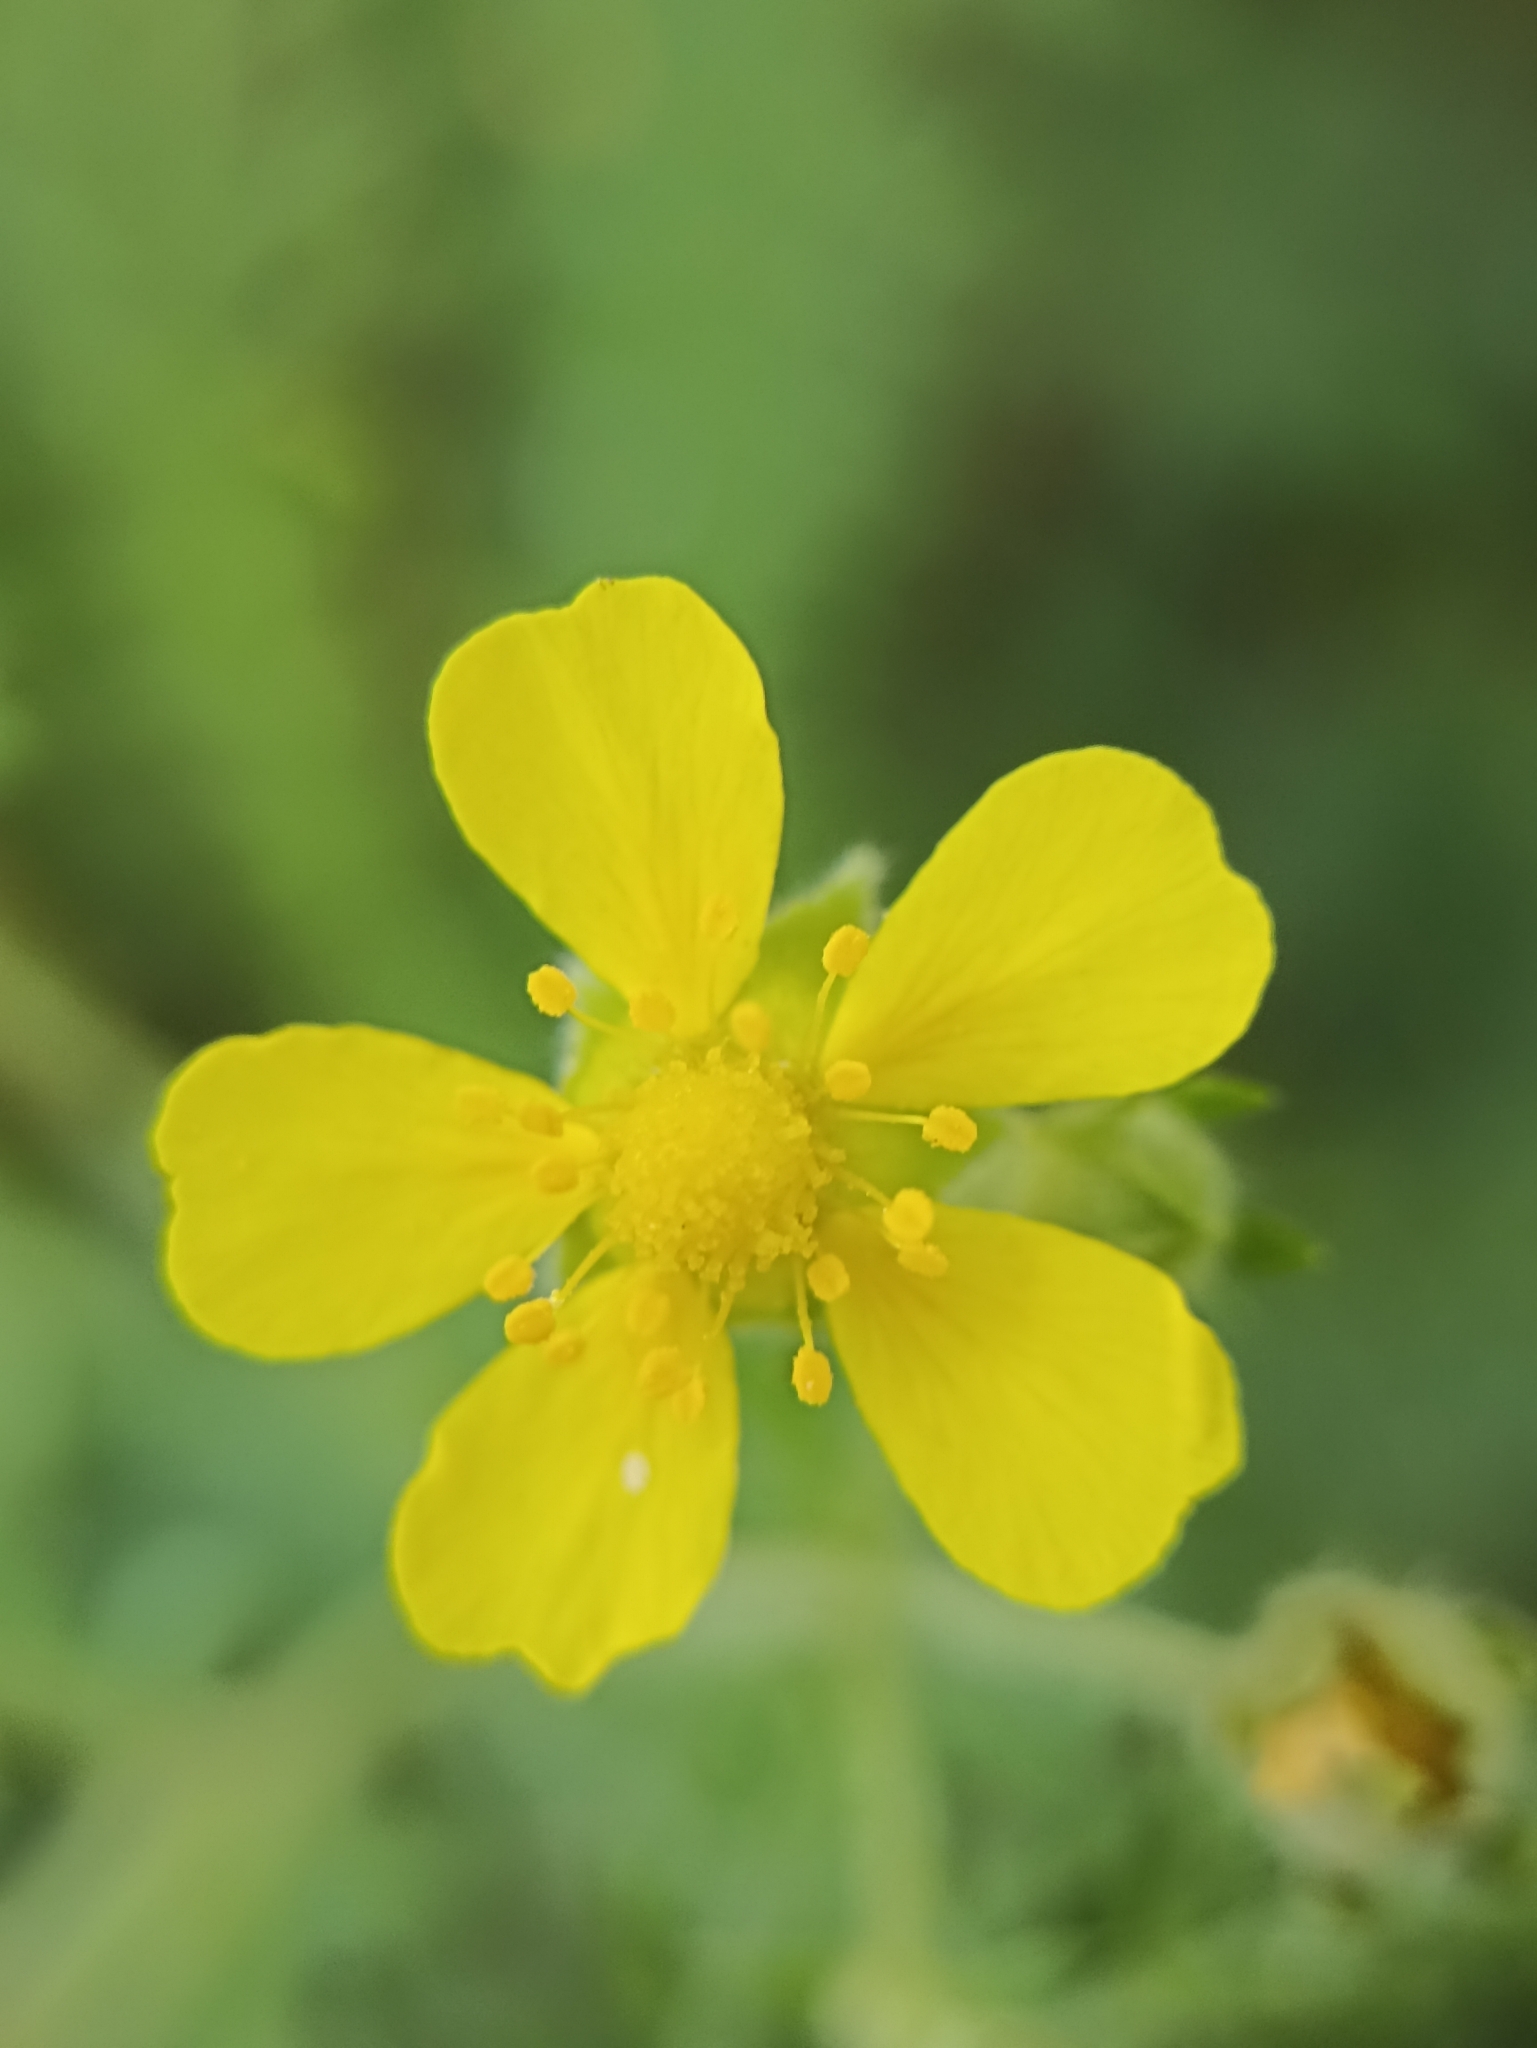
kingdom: Plantae
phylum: Tracheophyta
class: Magnoliopsida
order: Rosales
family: Rosaceae
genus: Potentilla
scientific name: Potentilla argentea
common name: Hoary cinquefoil
